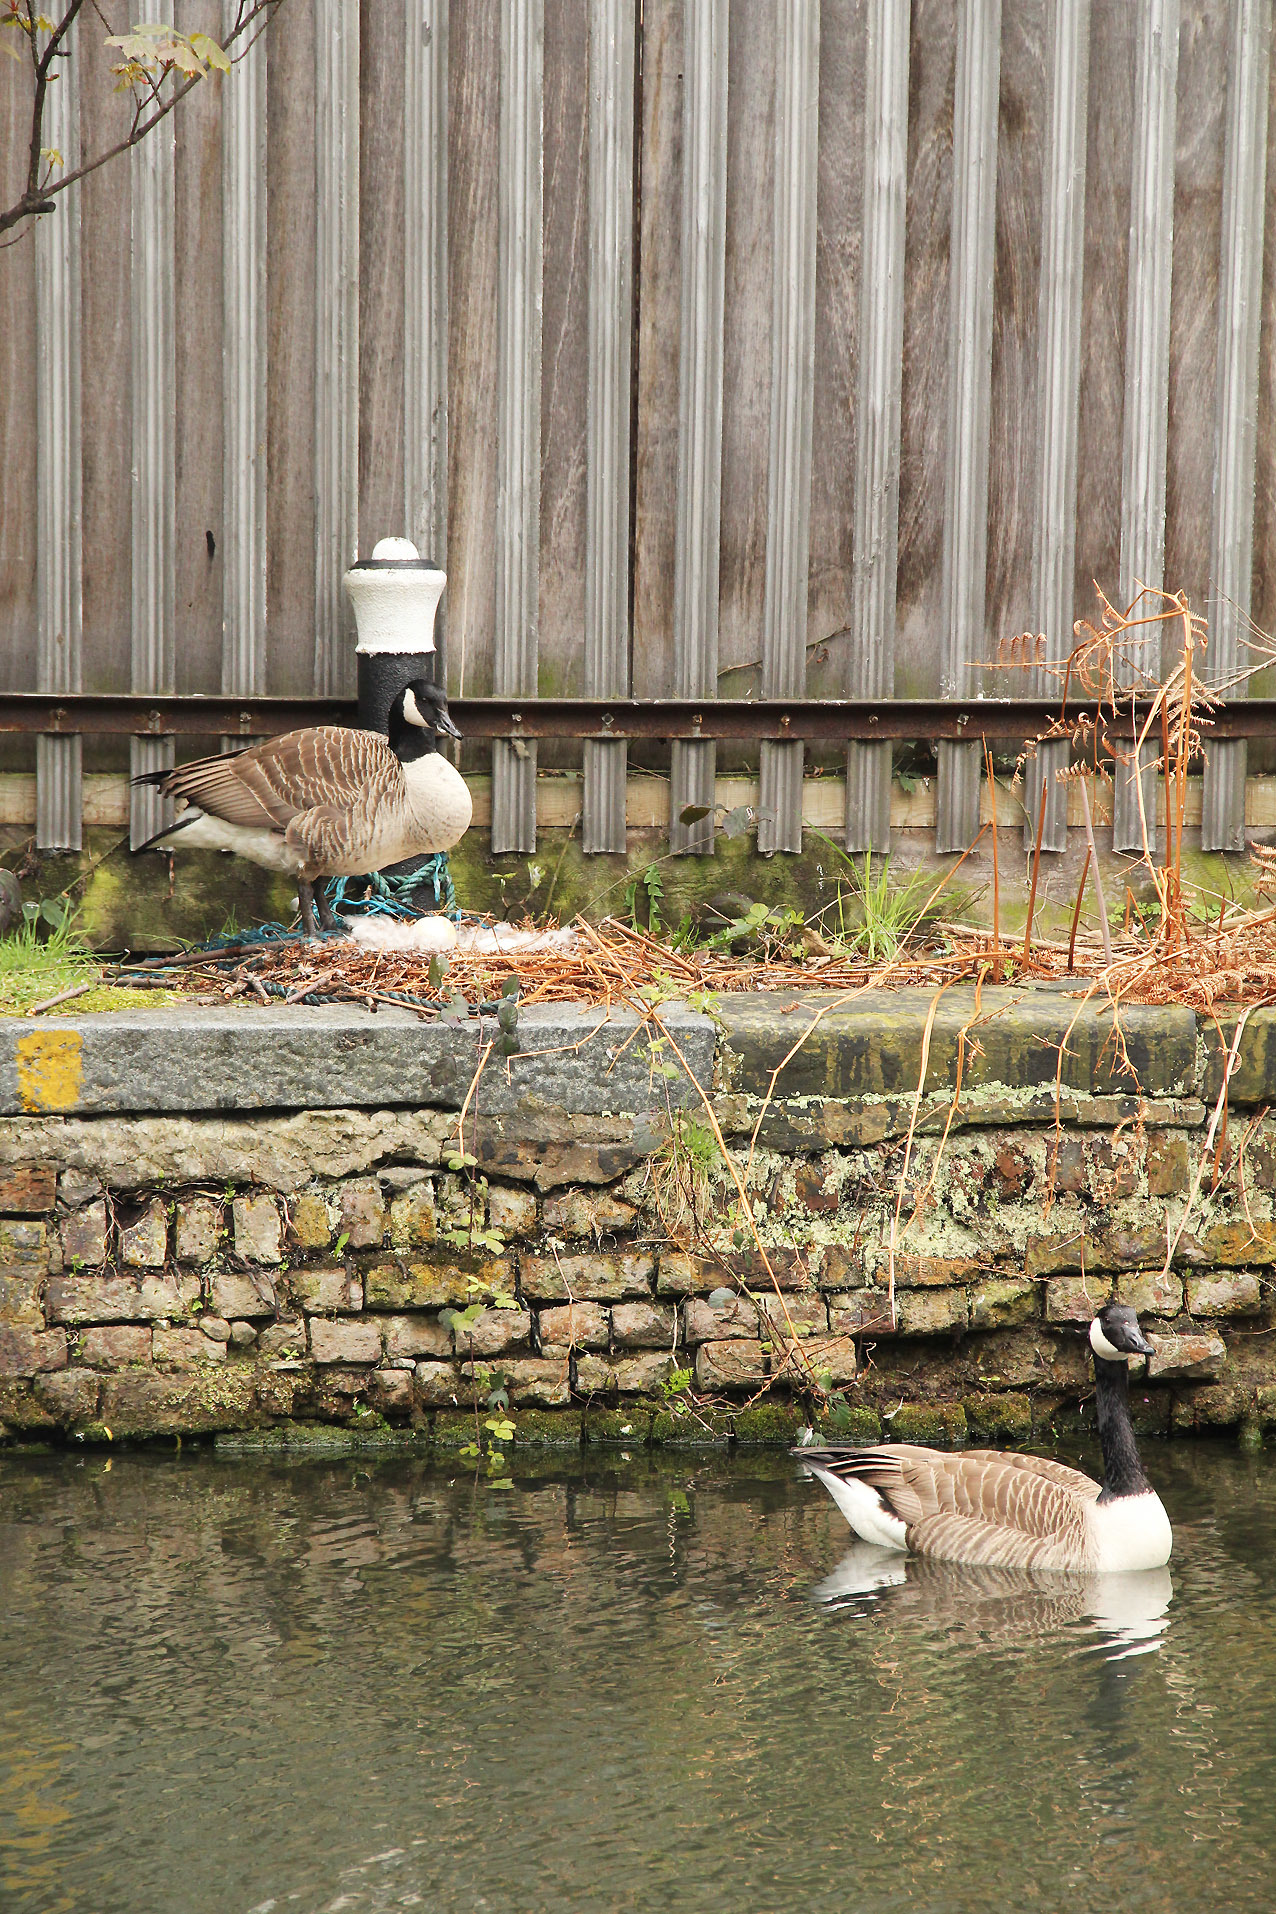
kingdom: Animalia
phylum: Chordata
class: Aves
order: Anseriformes
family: Anatidae
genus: Branta
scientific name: Branta canadensis
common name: Canada goose
